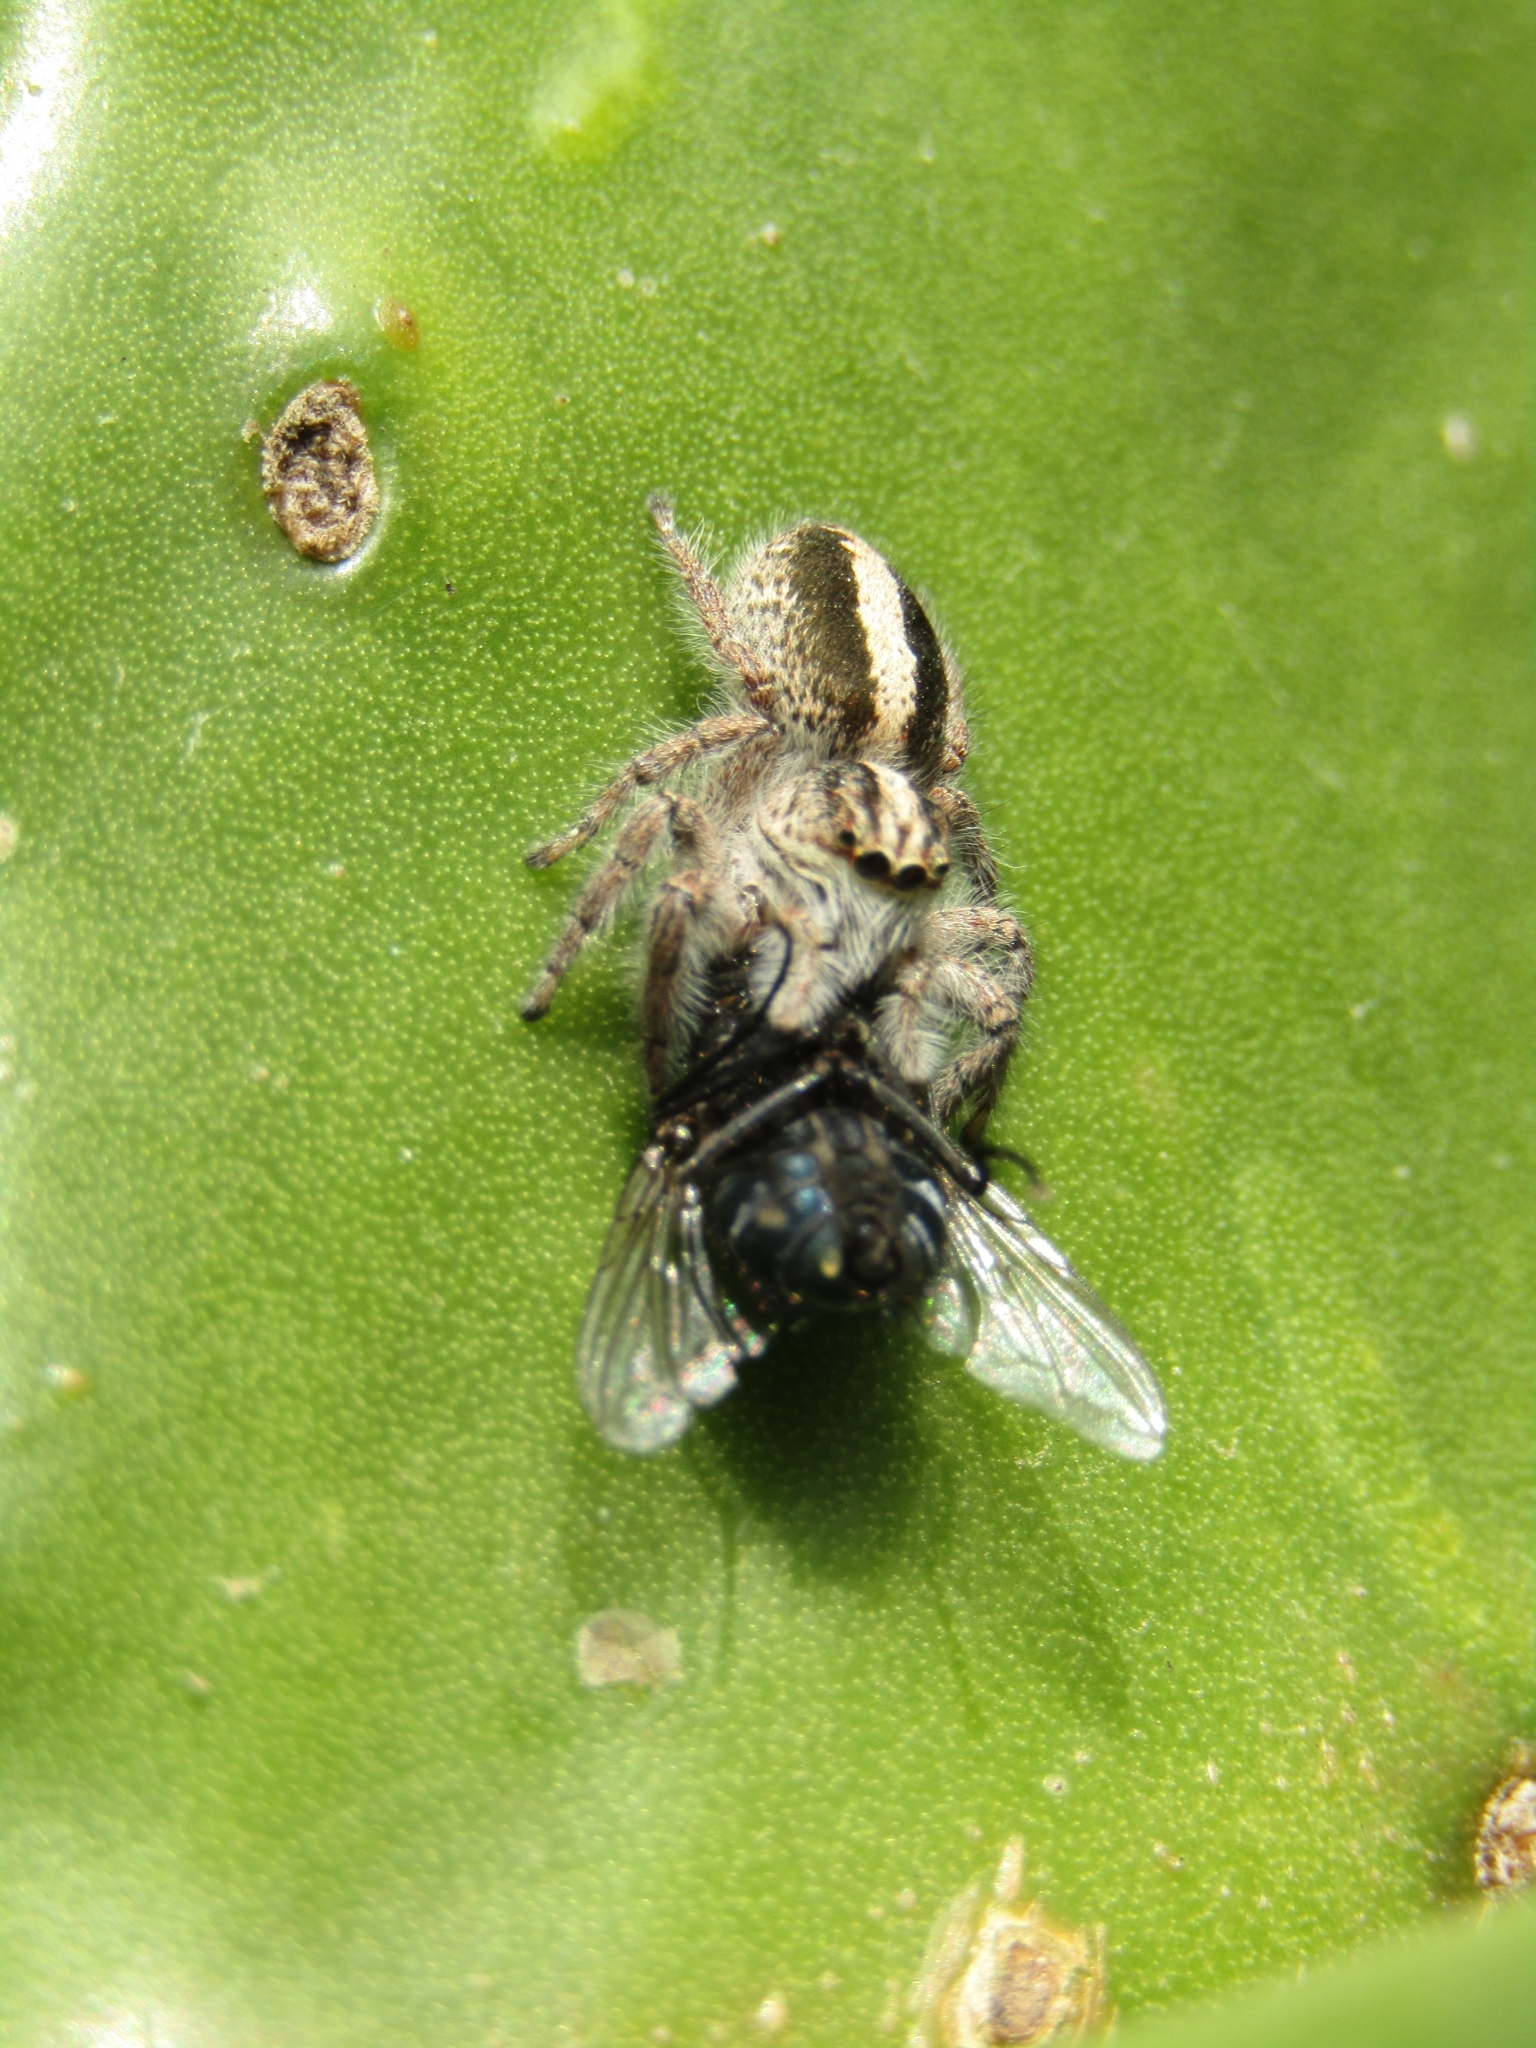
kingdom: Animalia
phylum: Arthropoda
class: Arachnida
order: Araneae
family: Salticidae
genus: Megafreya
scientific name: Megafreya sutrix
